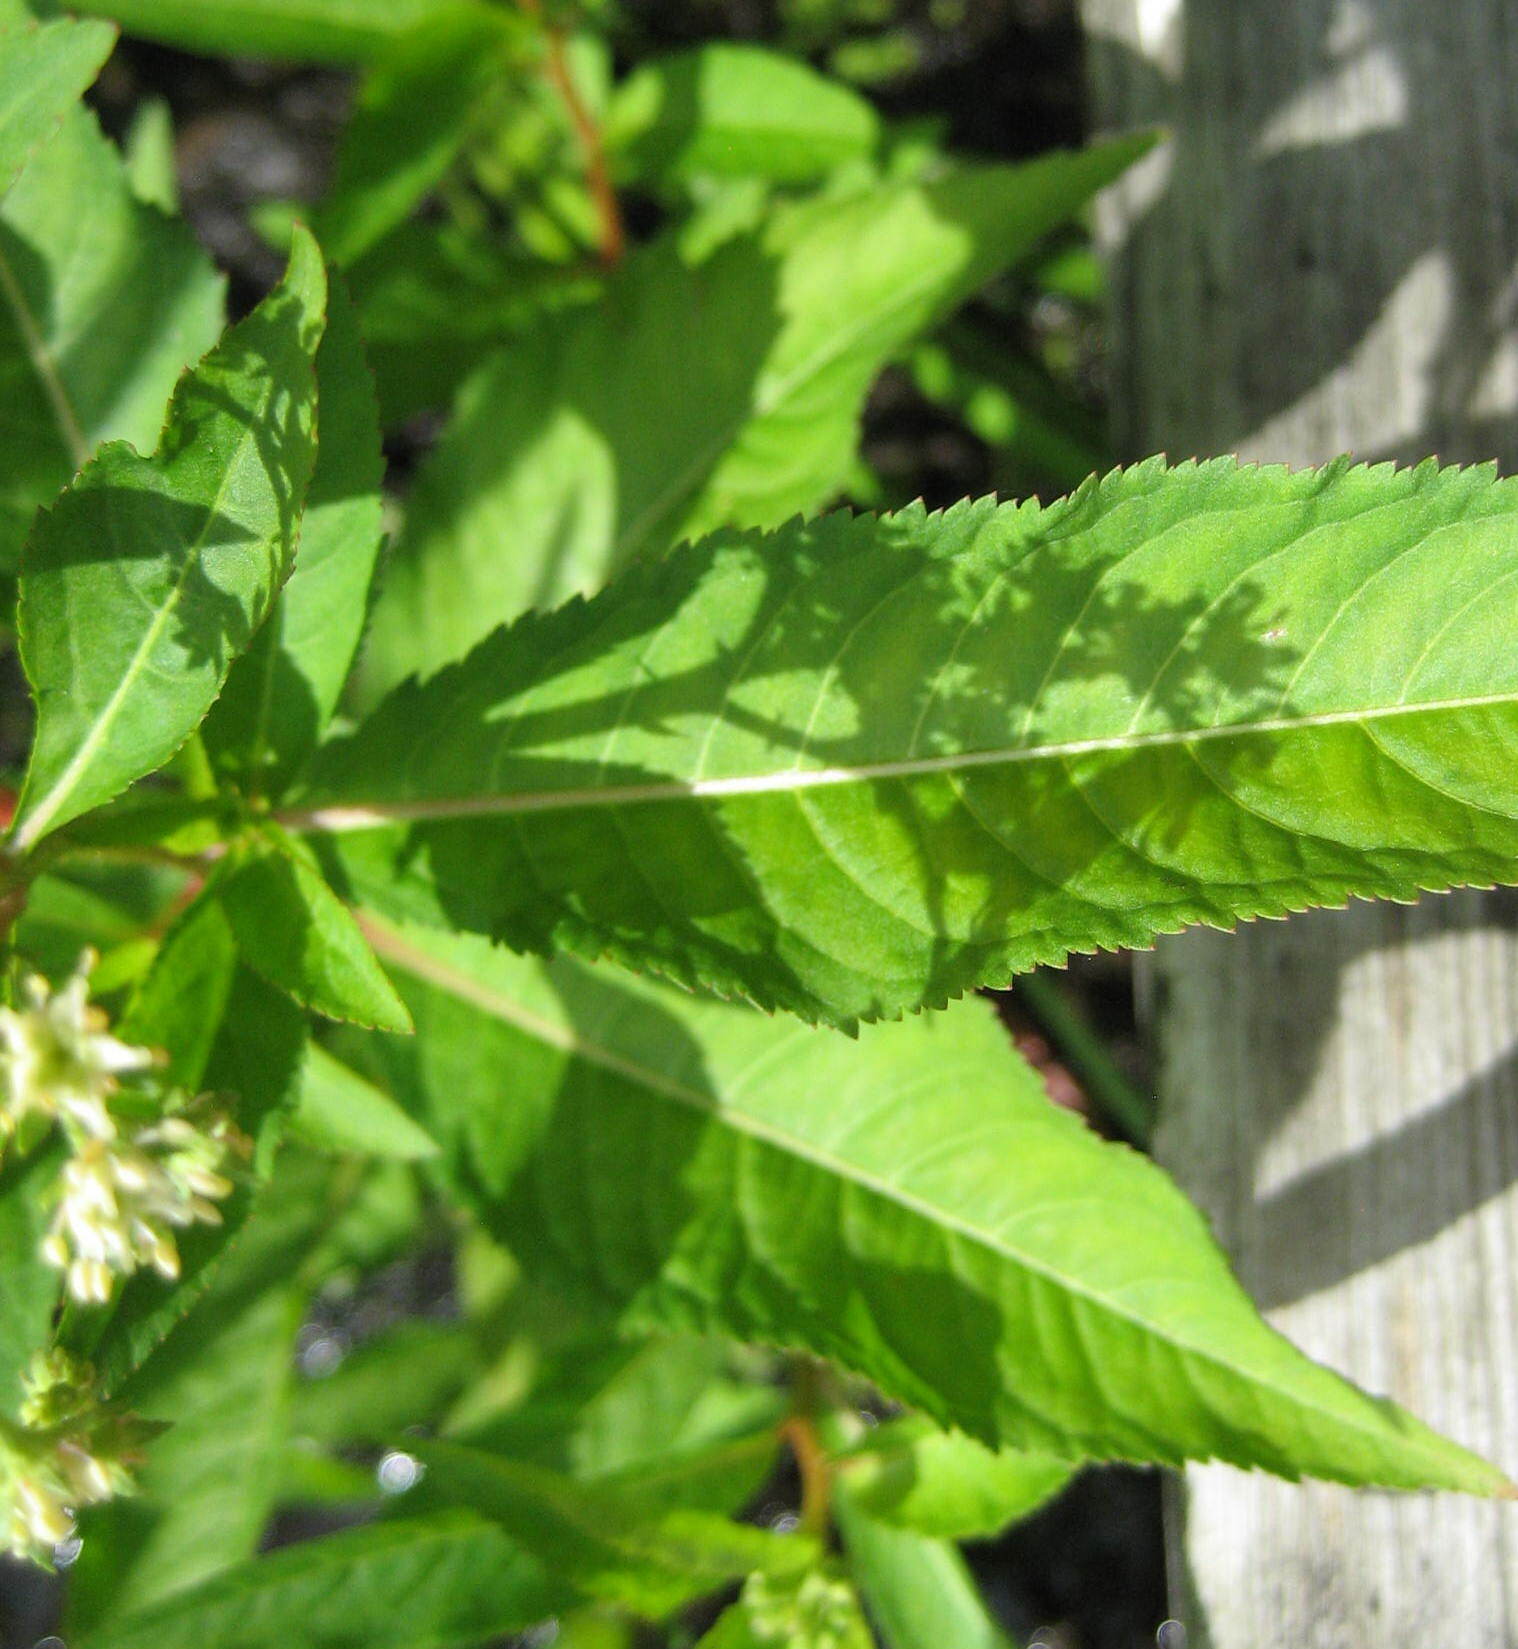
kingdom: Plantae
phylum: Tracheophyta
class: Magnoliopsida
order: Saxifragales
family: Penthoraceae
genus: Penthorum
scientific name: Penthorum sedoides
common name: Ditch stonecrop
